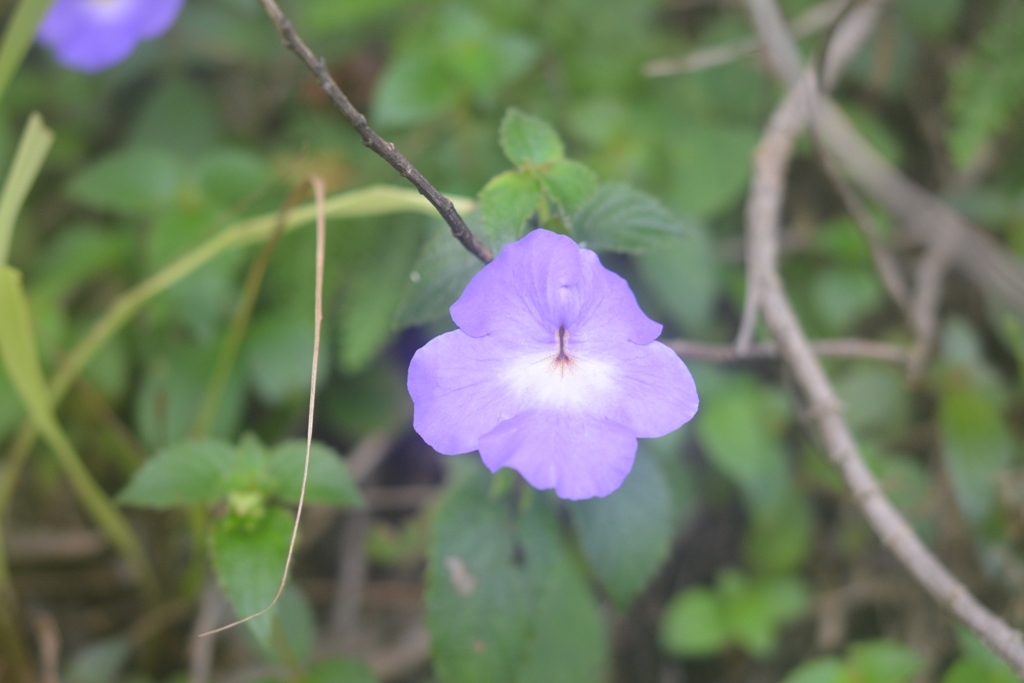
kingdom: Plantae
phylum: Tracheophyta
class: Magnoliopsida
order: Lamiales
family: Gesneriaceae
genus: Achimenes
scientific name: Achimenes longiflora
